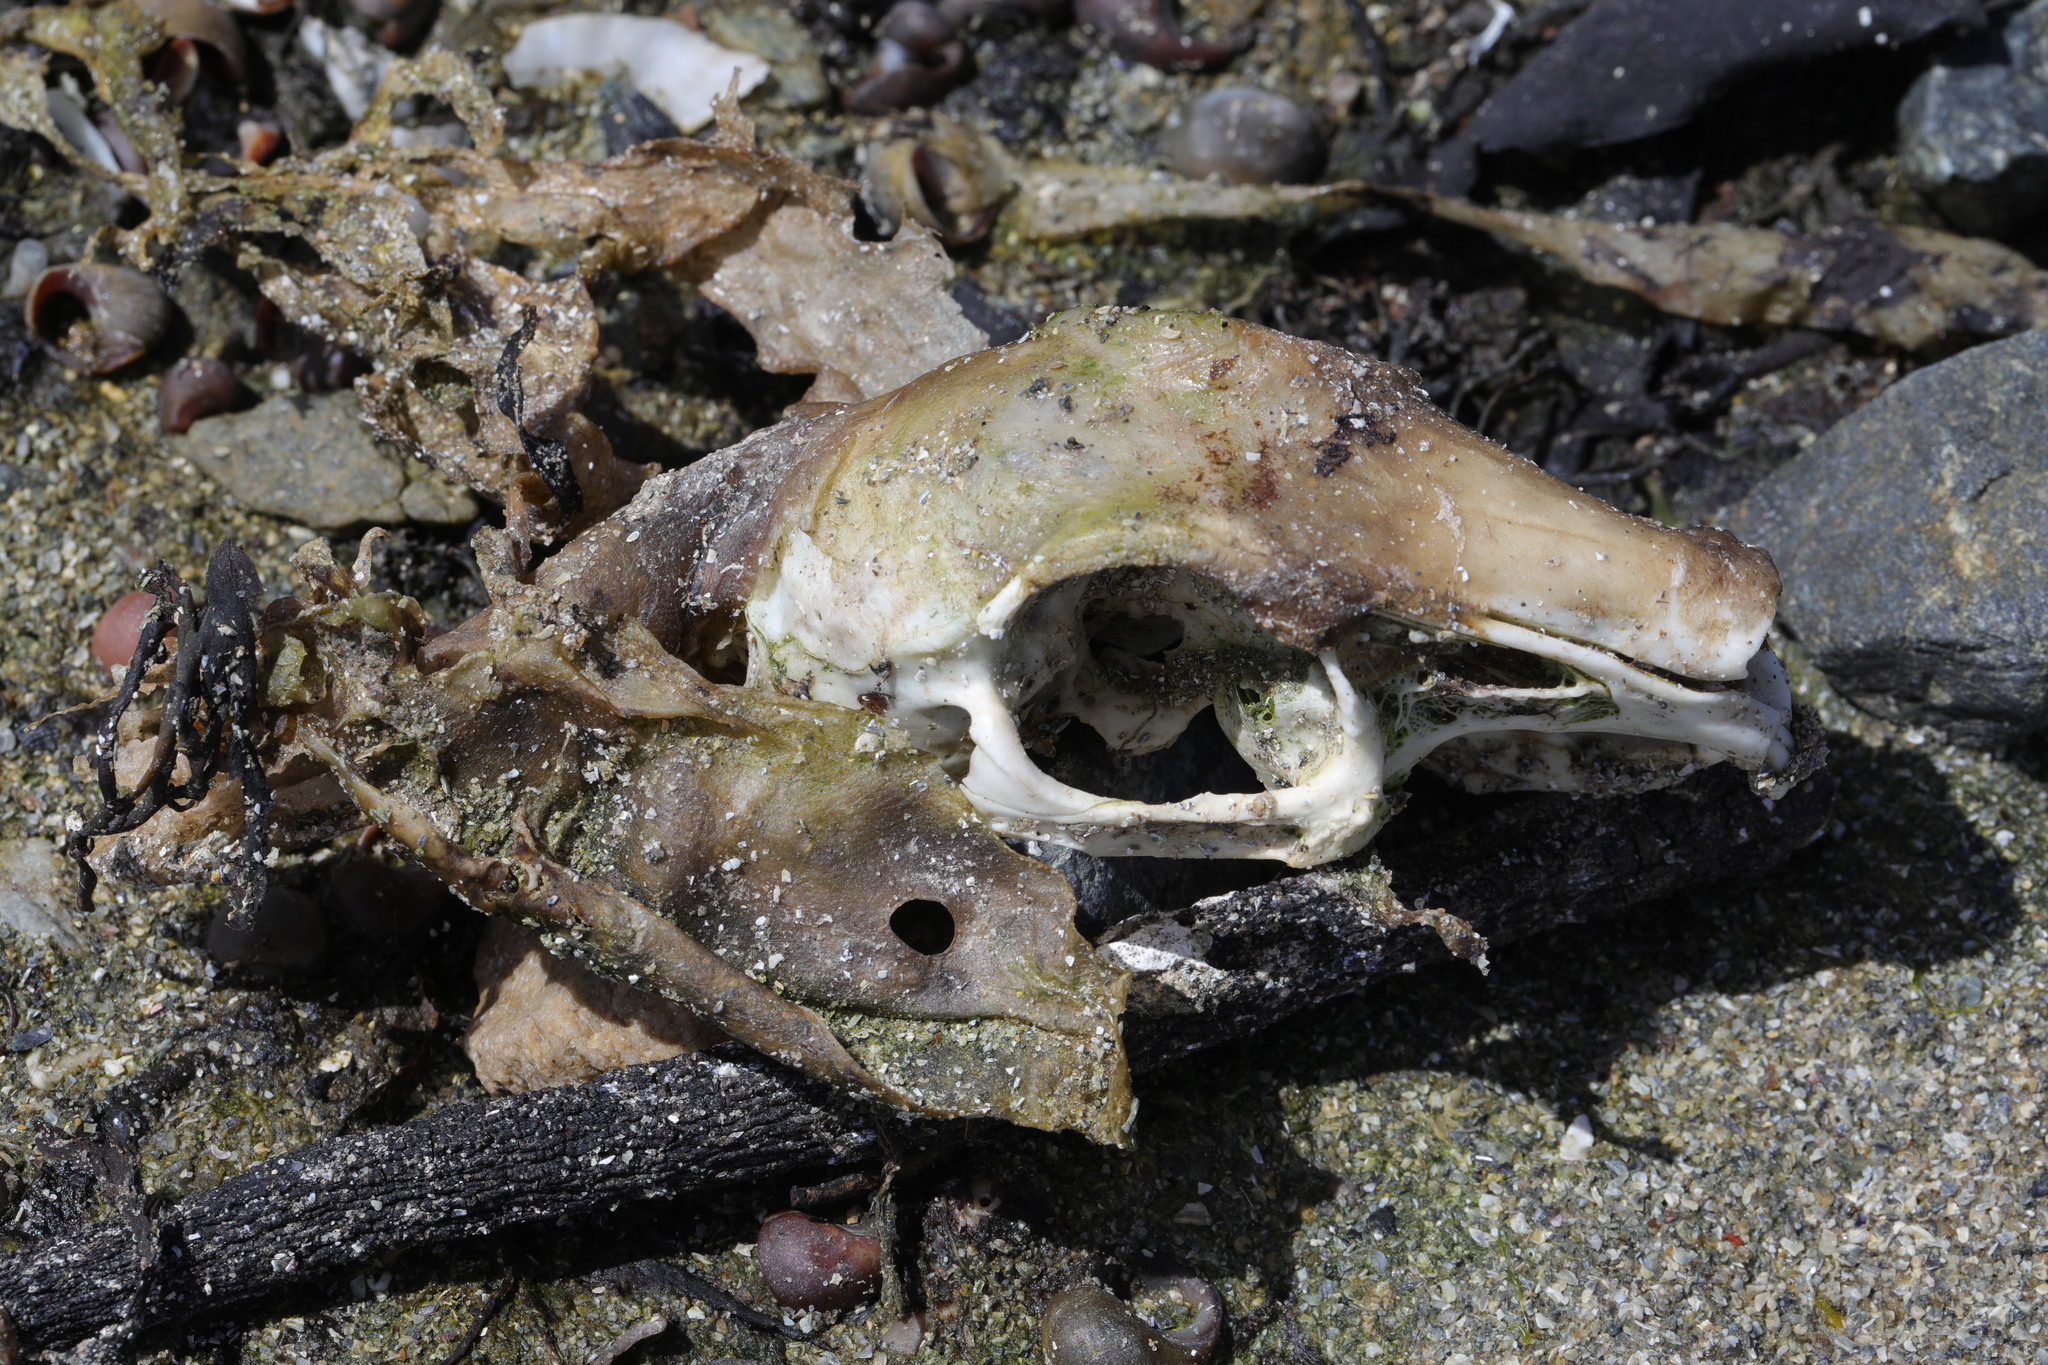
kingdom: Animalia
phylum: Chordata
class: Mammalia
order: Lagomorpha
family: Leporidae
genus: Oryctolagus
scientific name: Oryctolagus cuniculus
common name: European rabbit
